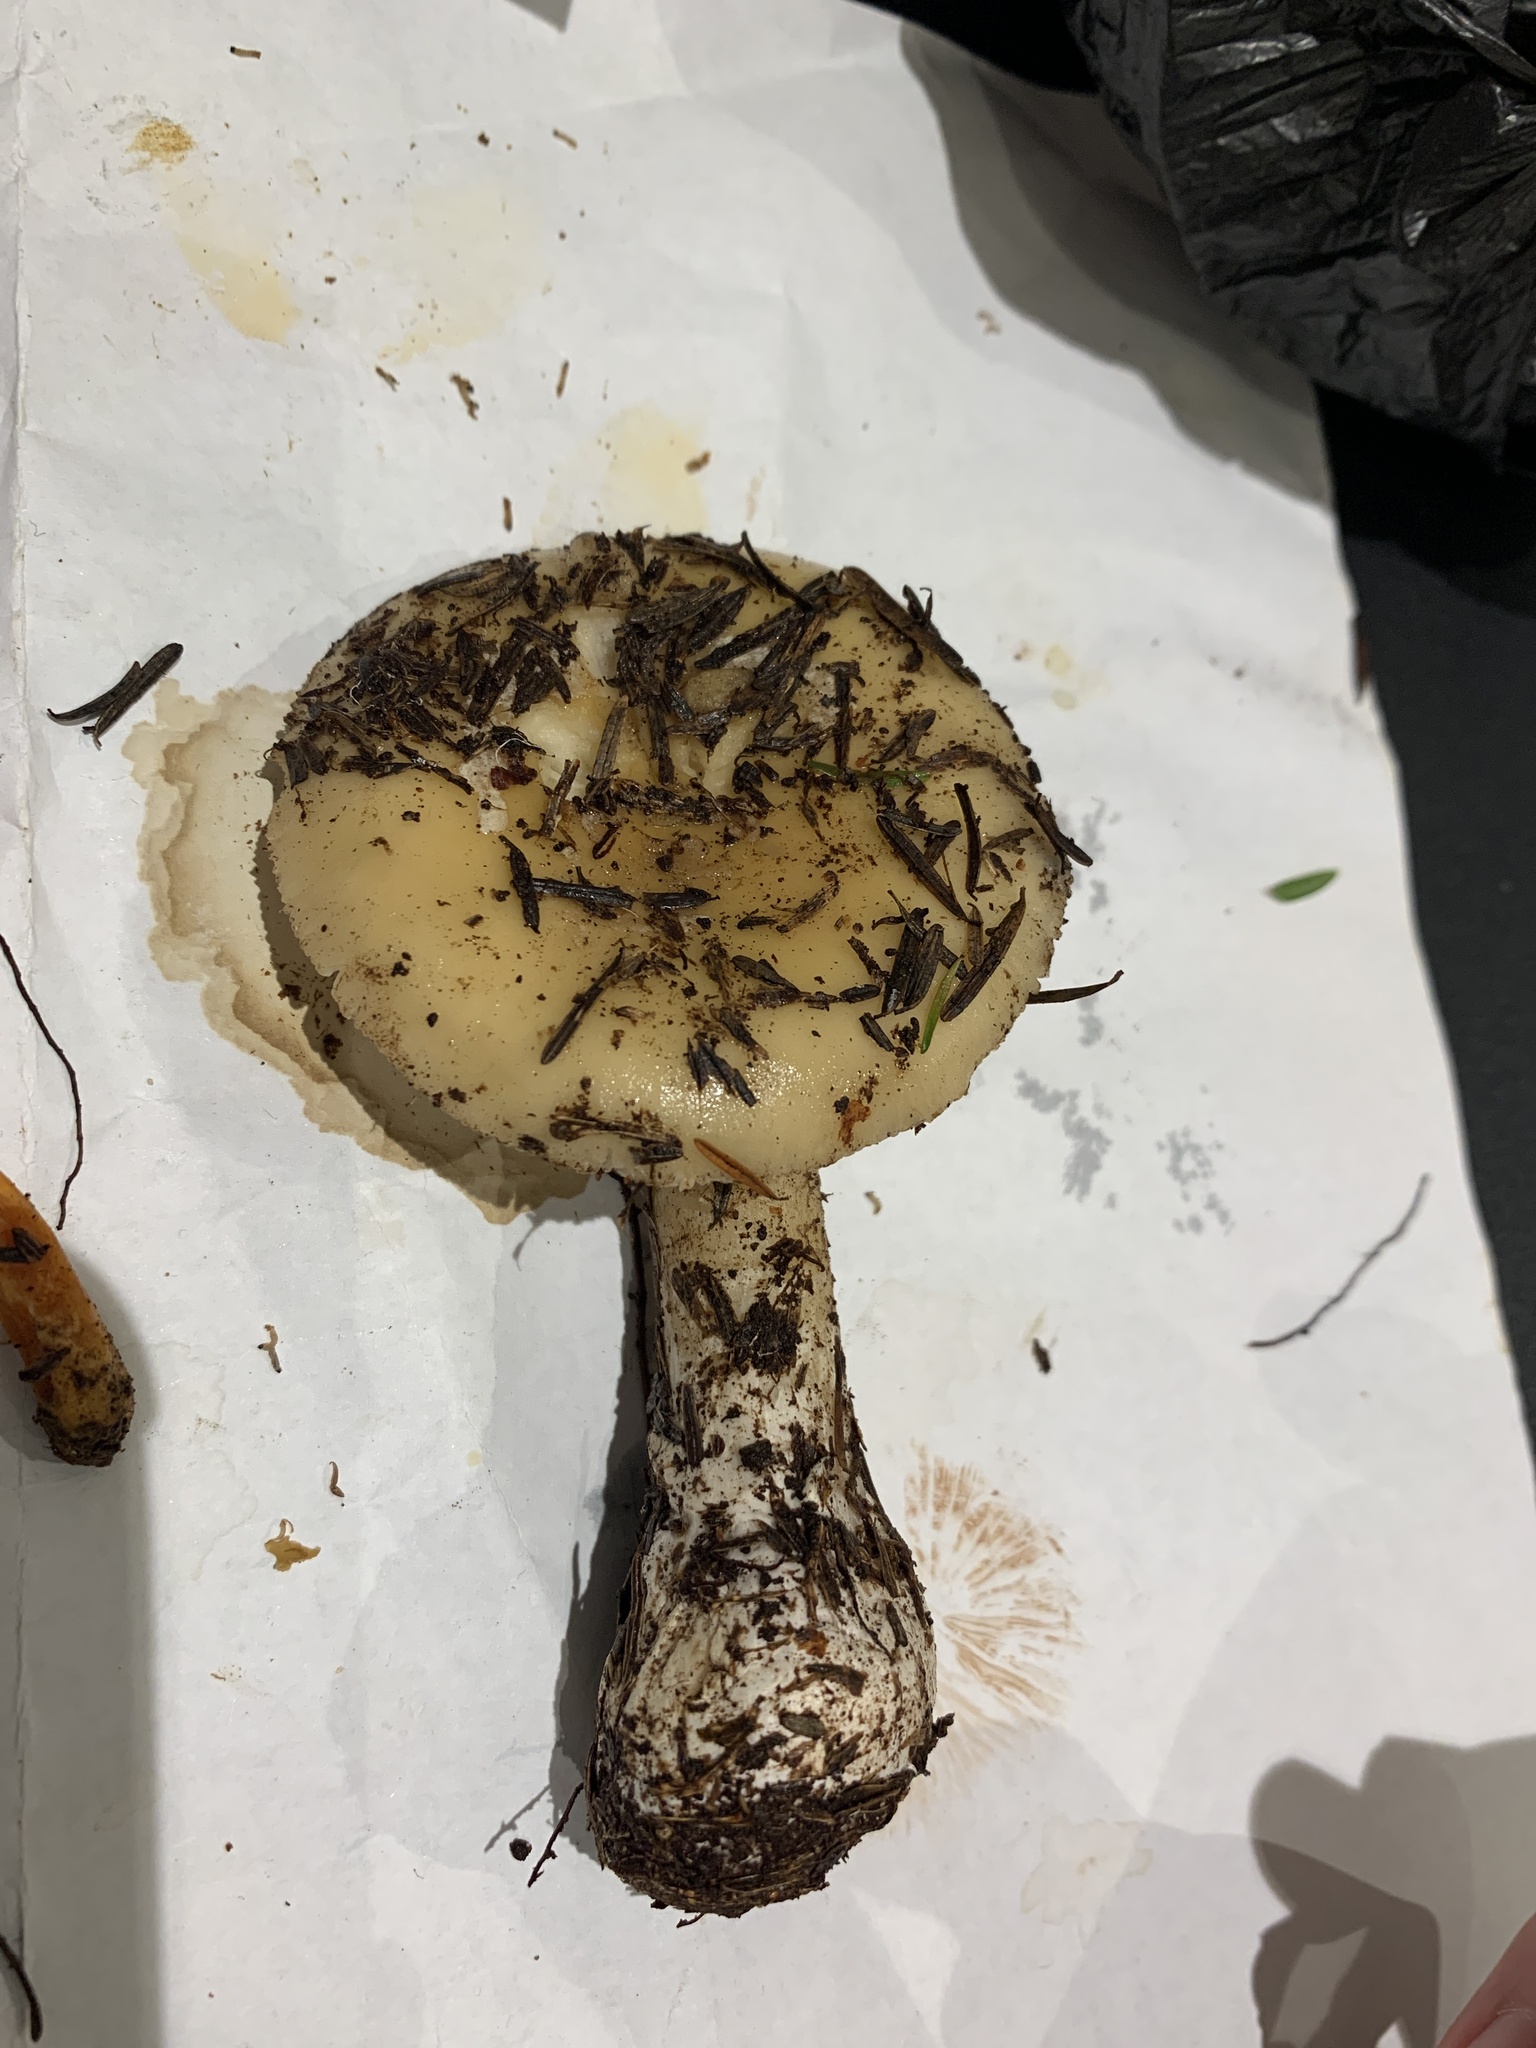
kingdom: Fungi
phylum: Basidiomycota
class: Agaricomycetes
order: Agaricales
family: Amanitaceae
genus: Amanita
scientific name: Amanita gemmata
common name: Jewelled amanita
